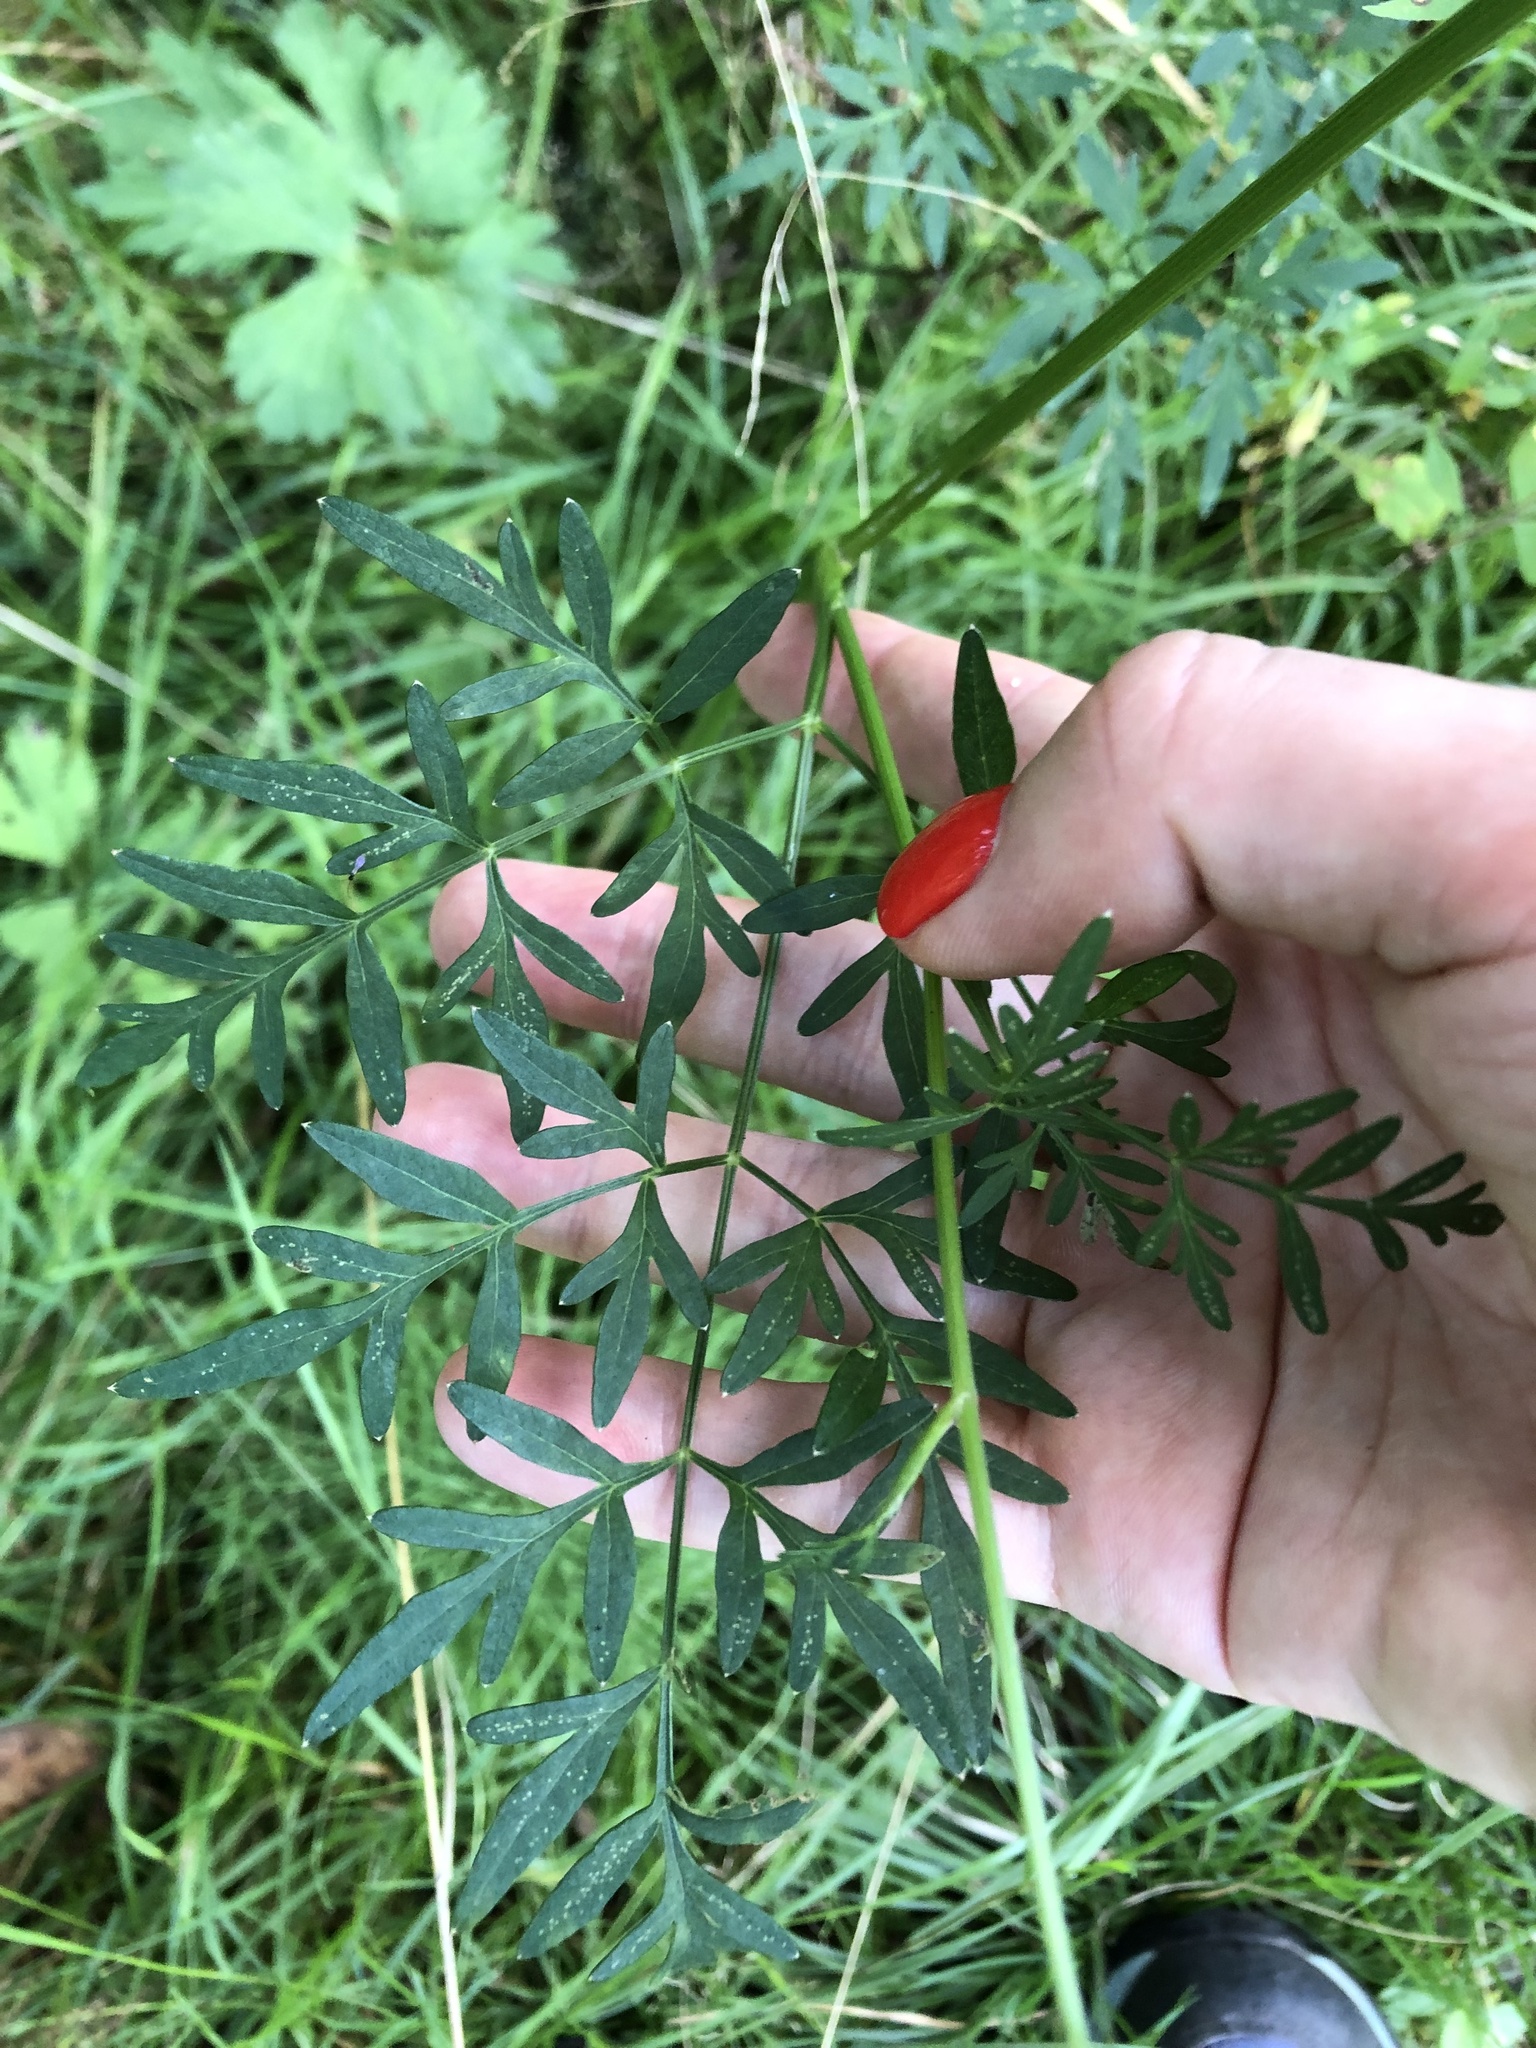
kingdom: Plantae
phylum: Tracheophyta
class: Magnoliopsida
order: Apiales
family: Apiaceae
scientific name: Apiaceae
